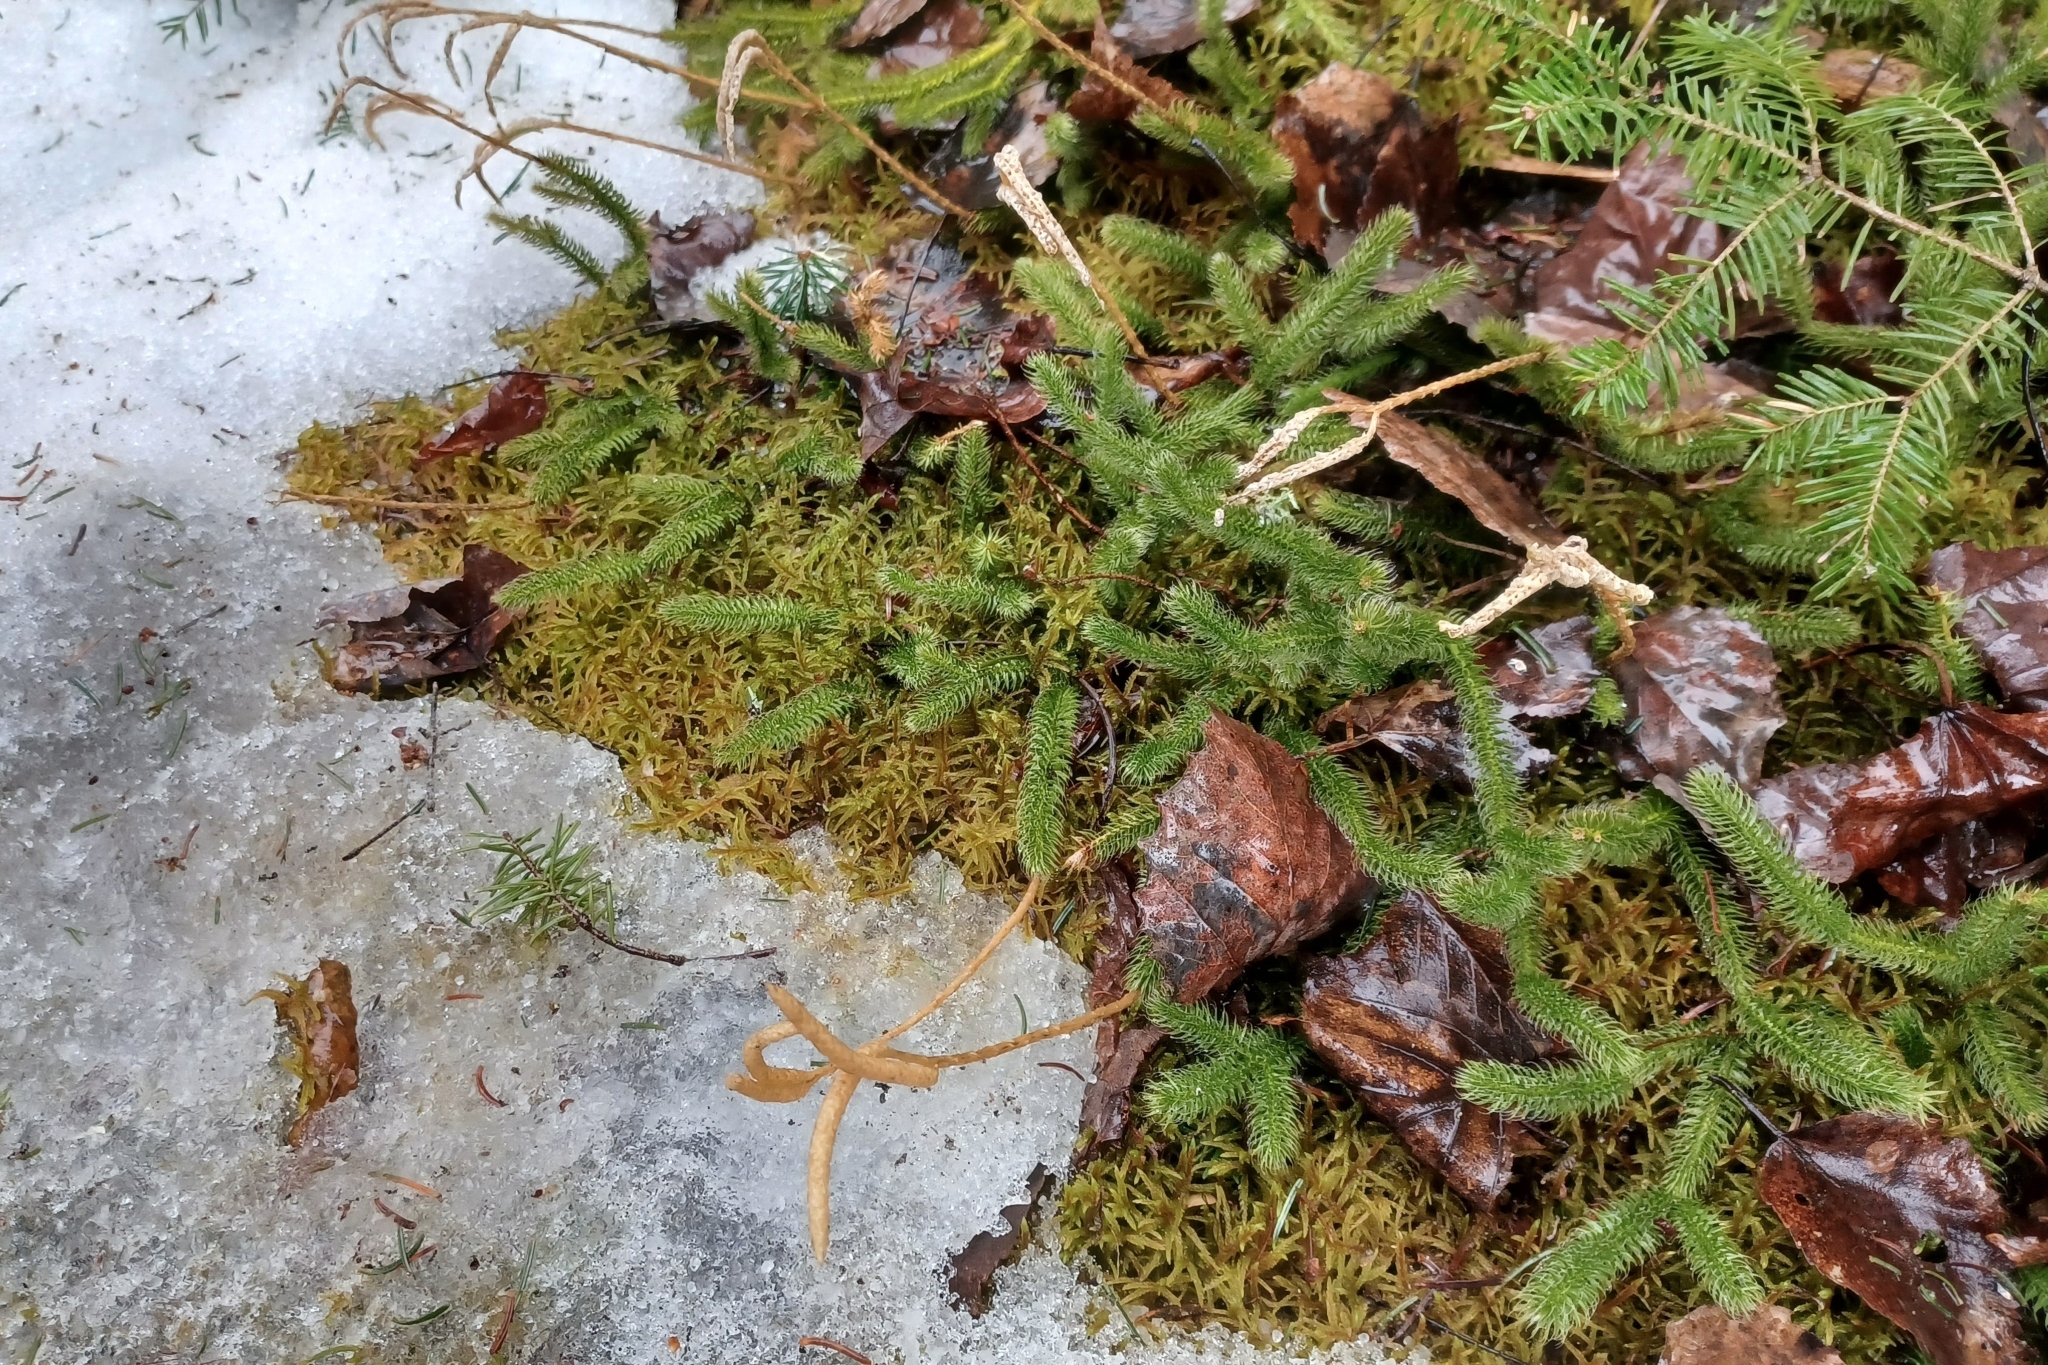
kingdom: Plantae
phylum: Tracheophyta
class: Lycopodiopsida
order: Lycopodiales
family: Lycopodiaceae
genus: Lycopodium
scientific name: Lycopodium clavatum
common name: Stag's-horn clubmoss
